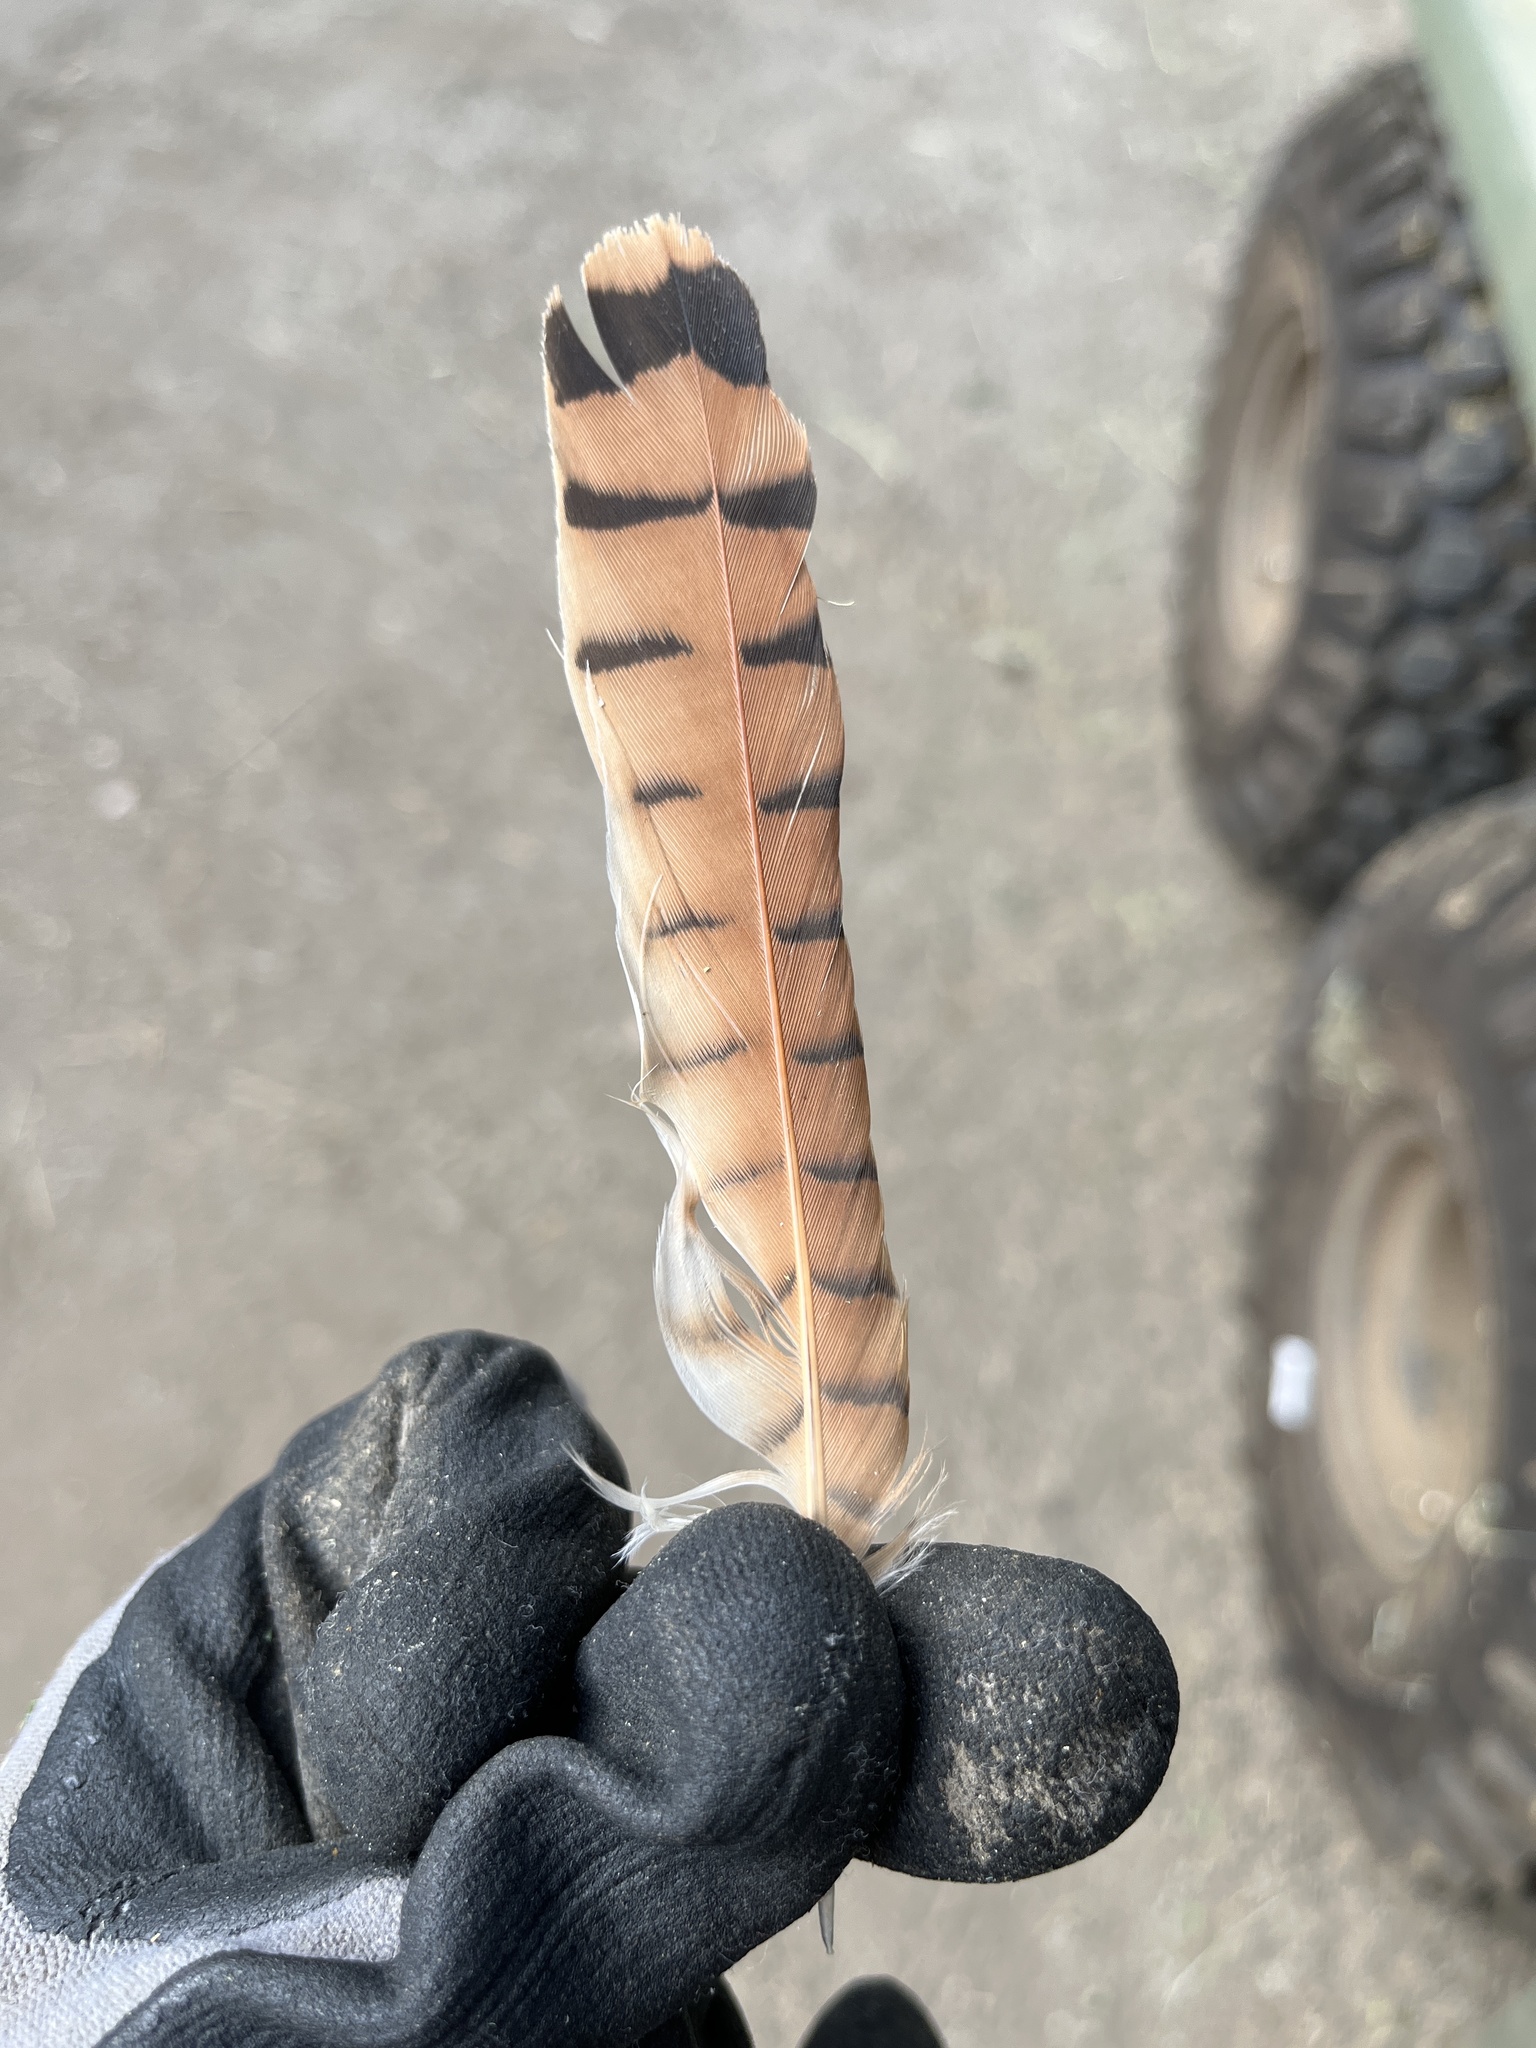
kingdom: Animalia
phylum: Chordata
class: Aves
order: Falconiformes
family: Falconidae
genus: Falco
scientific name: Falco sparverius
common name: American kestrel
